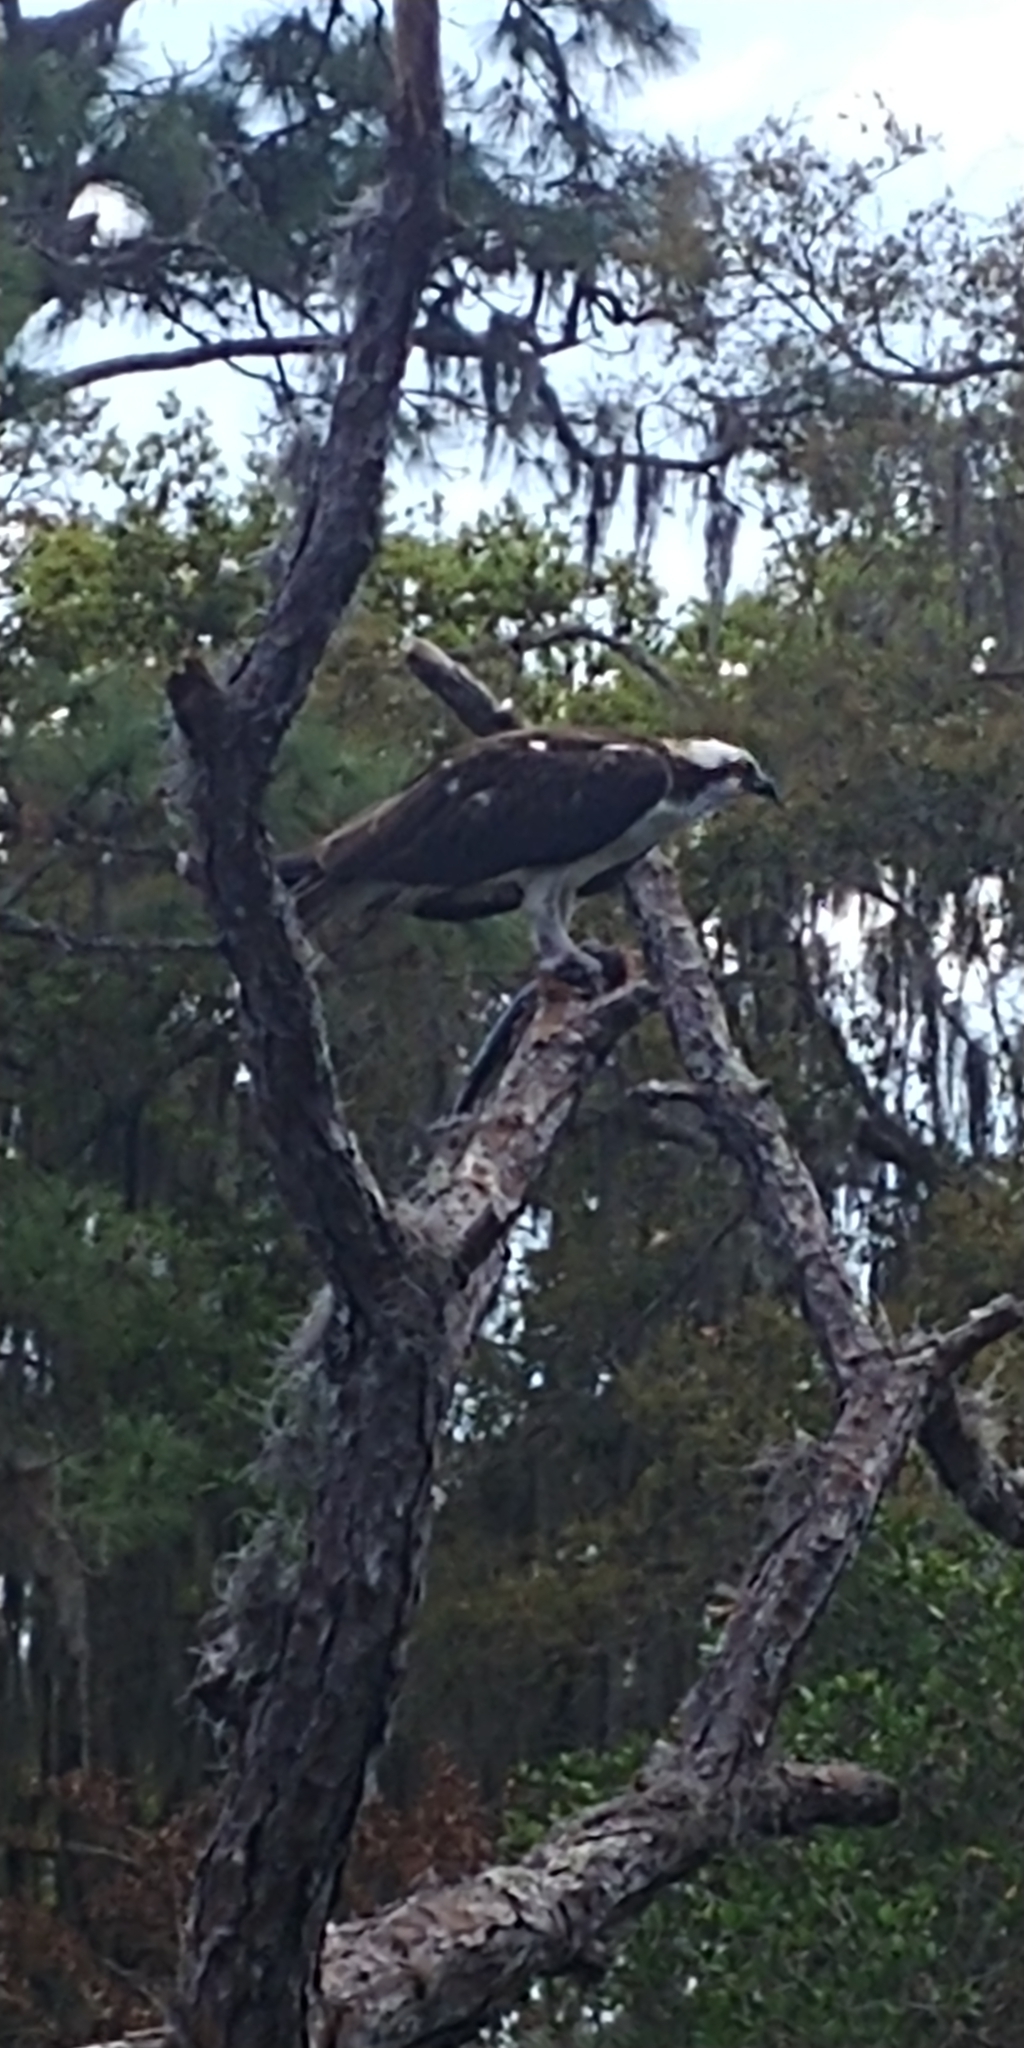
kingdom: Animalia
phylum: Chordata
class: Aves
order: Accipitriformes
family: Pandionidae
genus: Pandion
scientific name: Pandion haliaetus
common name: Osprey
